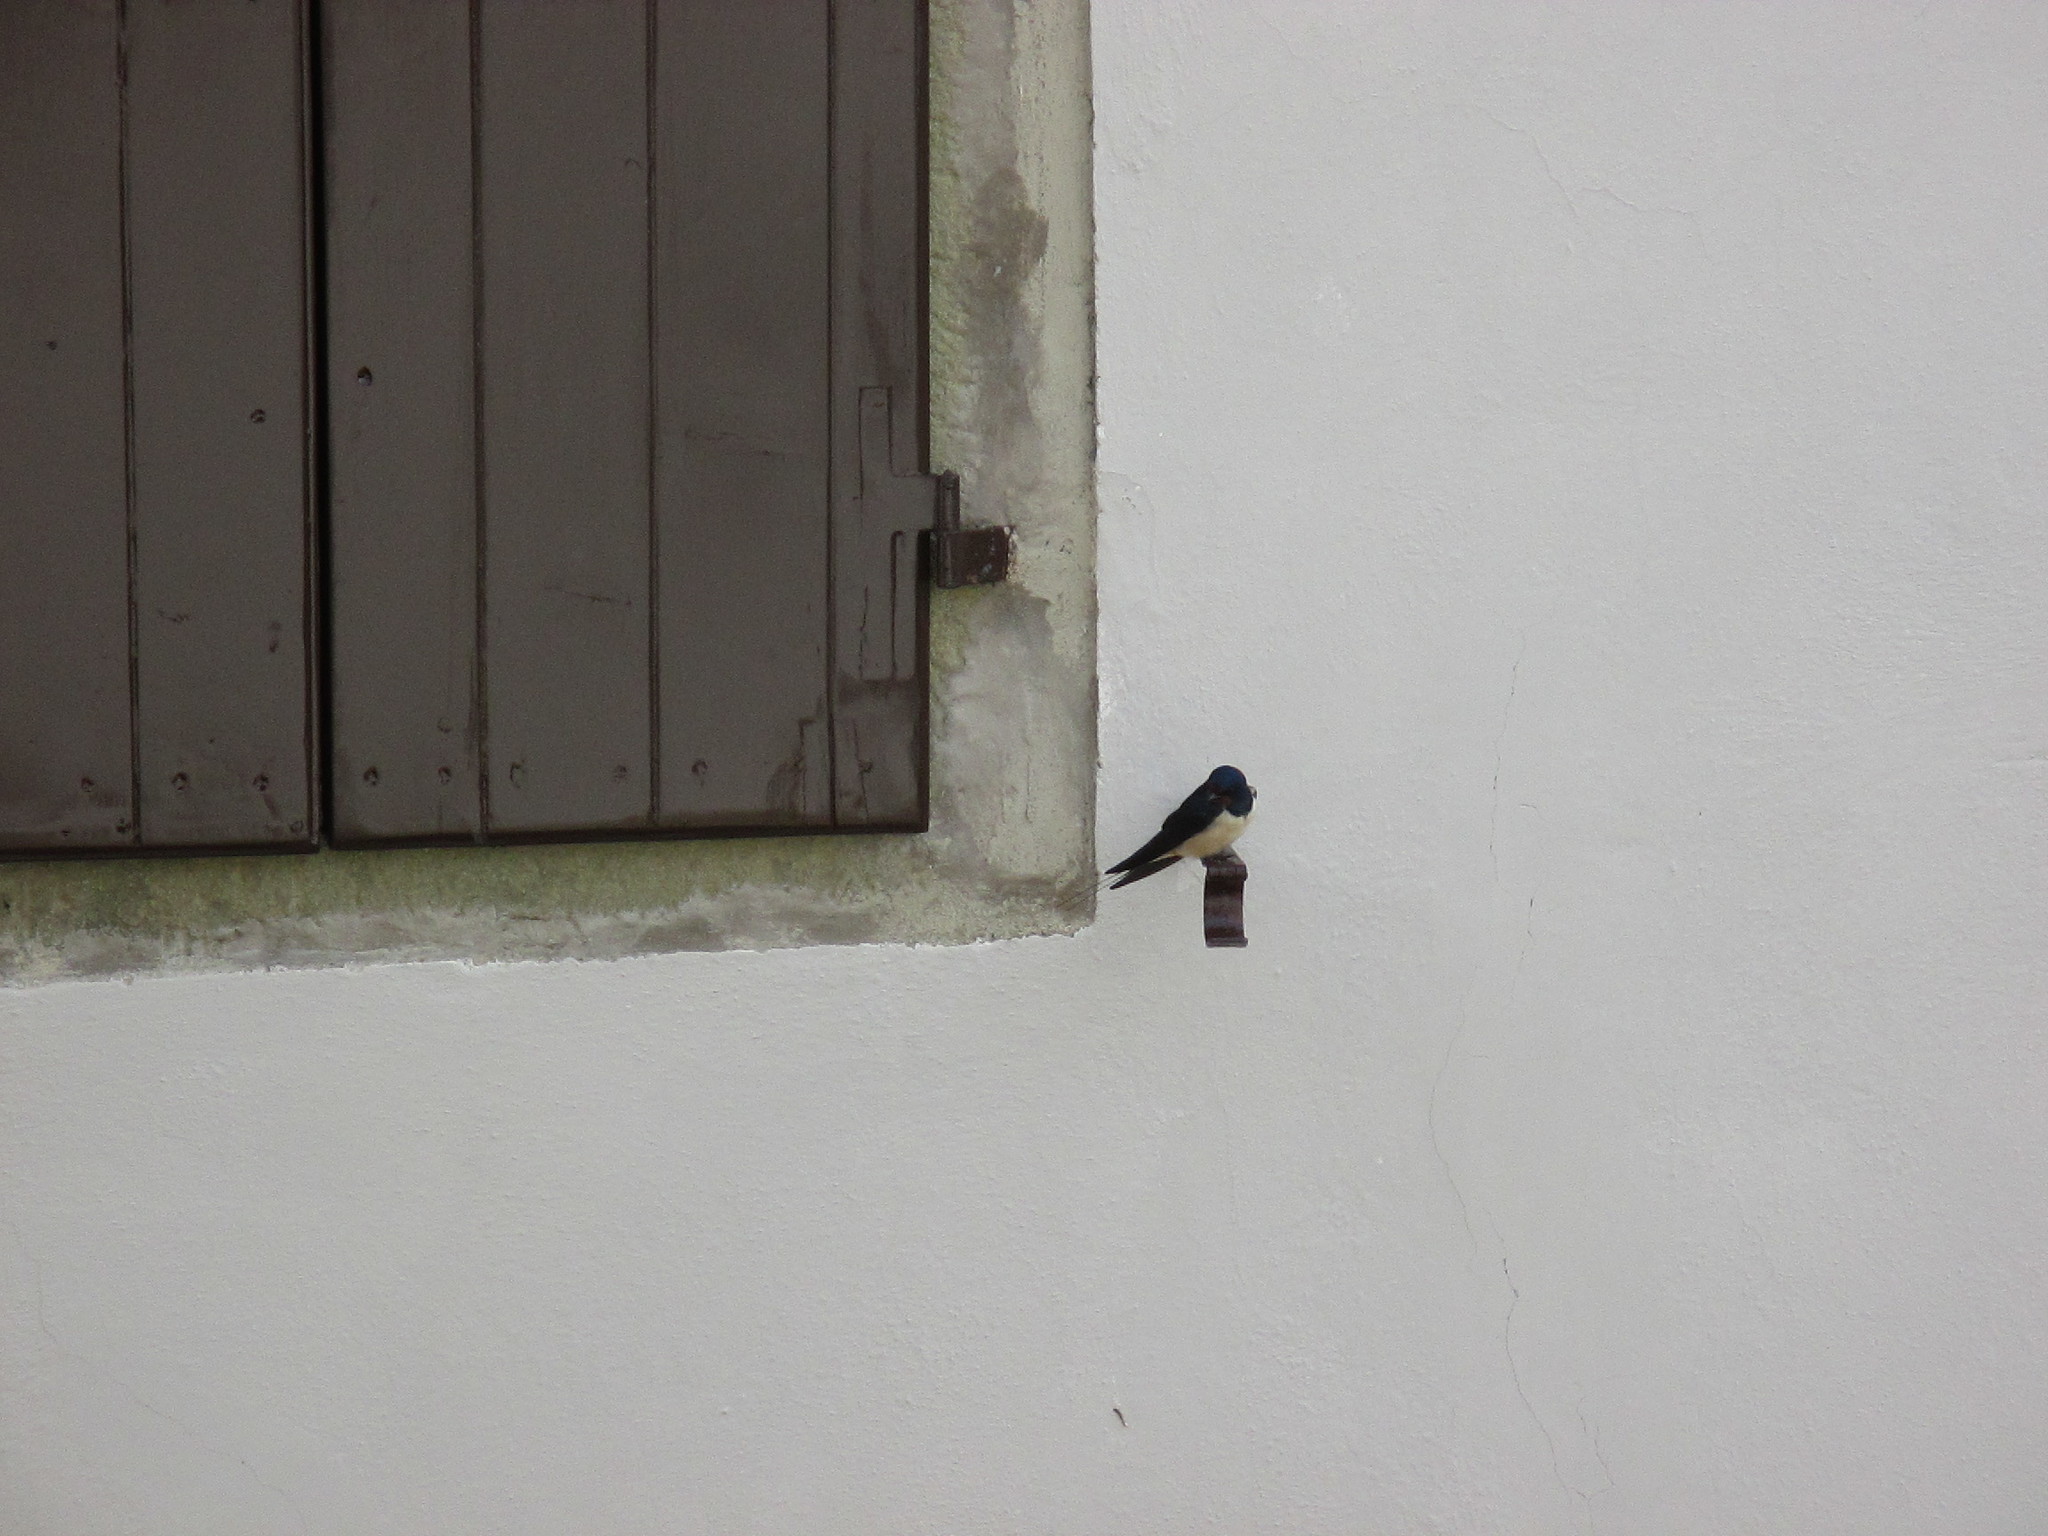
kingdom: Animalia
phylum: Chordata
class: Aves
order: Passeriformes
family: Hirundinidae
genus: Hirundo
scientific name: Hirundo rustica
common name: Barn swallow
